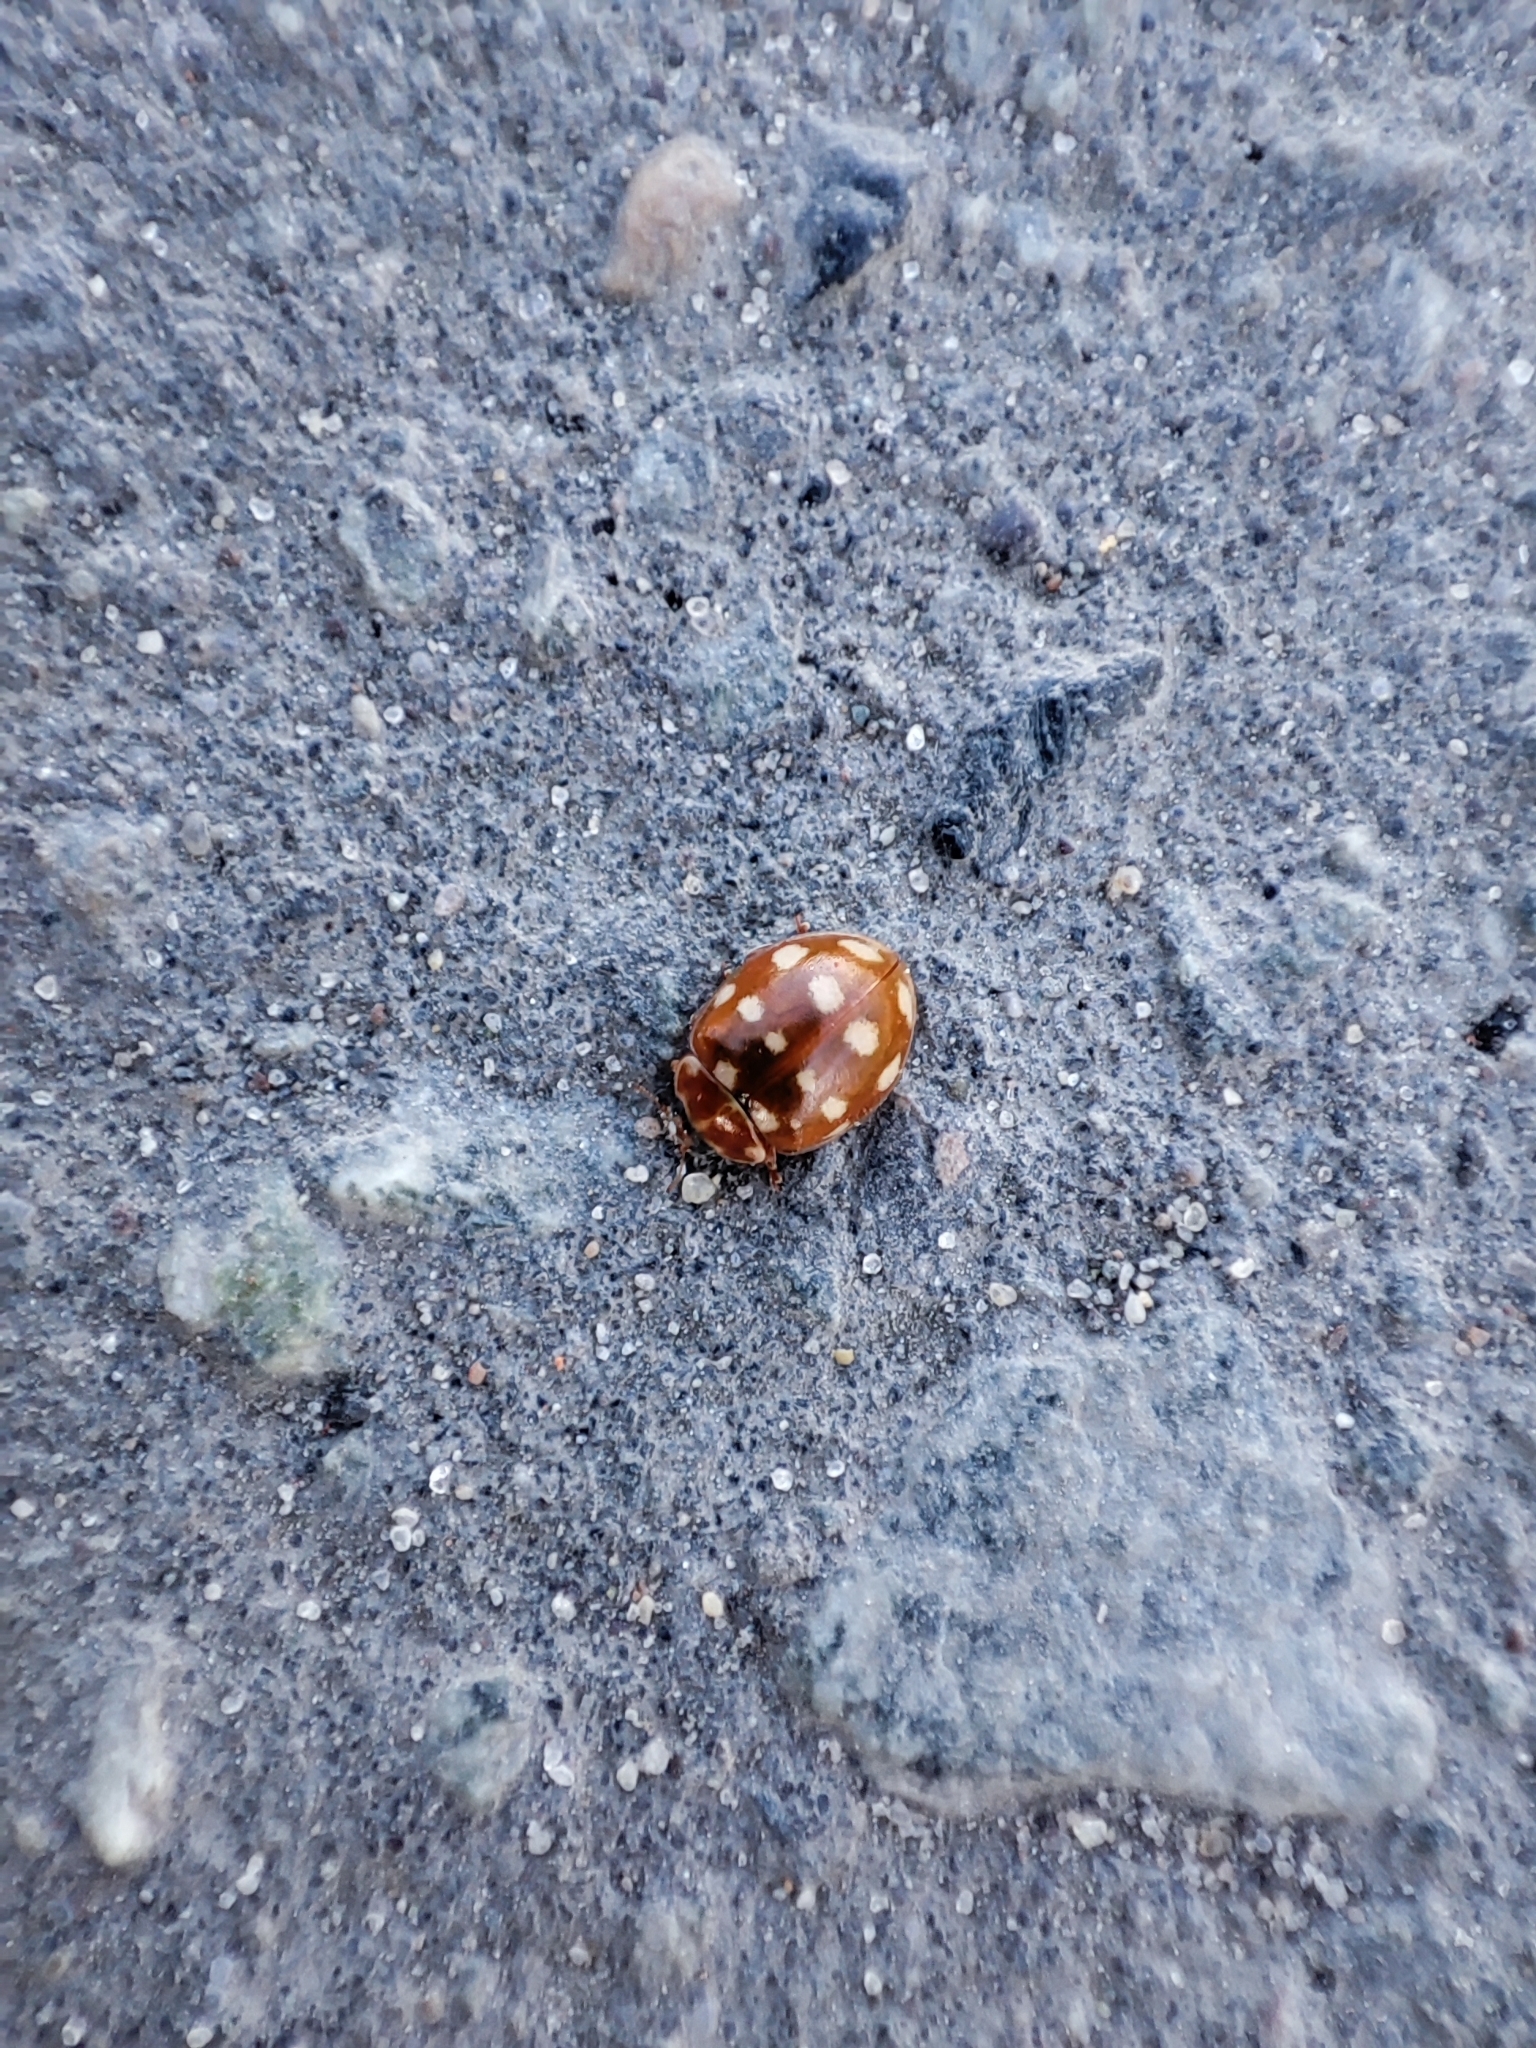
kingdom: Animalia
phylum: Arthropoda
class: Insecta
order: Coleoptera
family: Coccinellidae
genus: Calvia
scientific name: Calvia quatuordecimguttata
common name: Cream-spot ladybird
